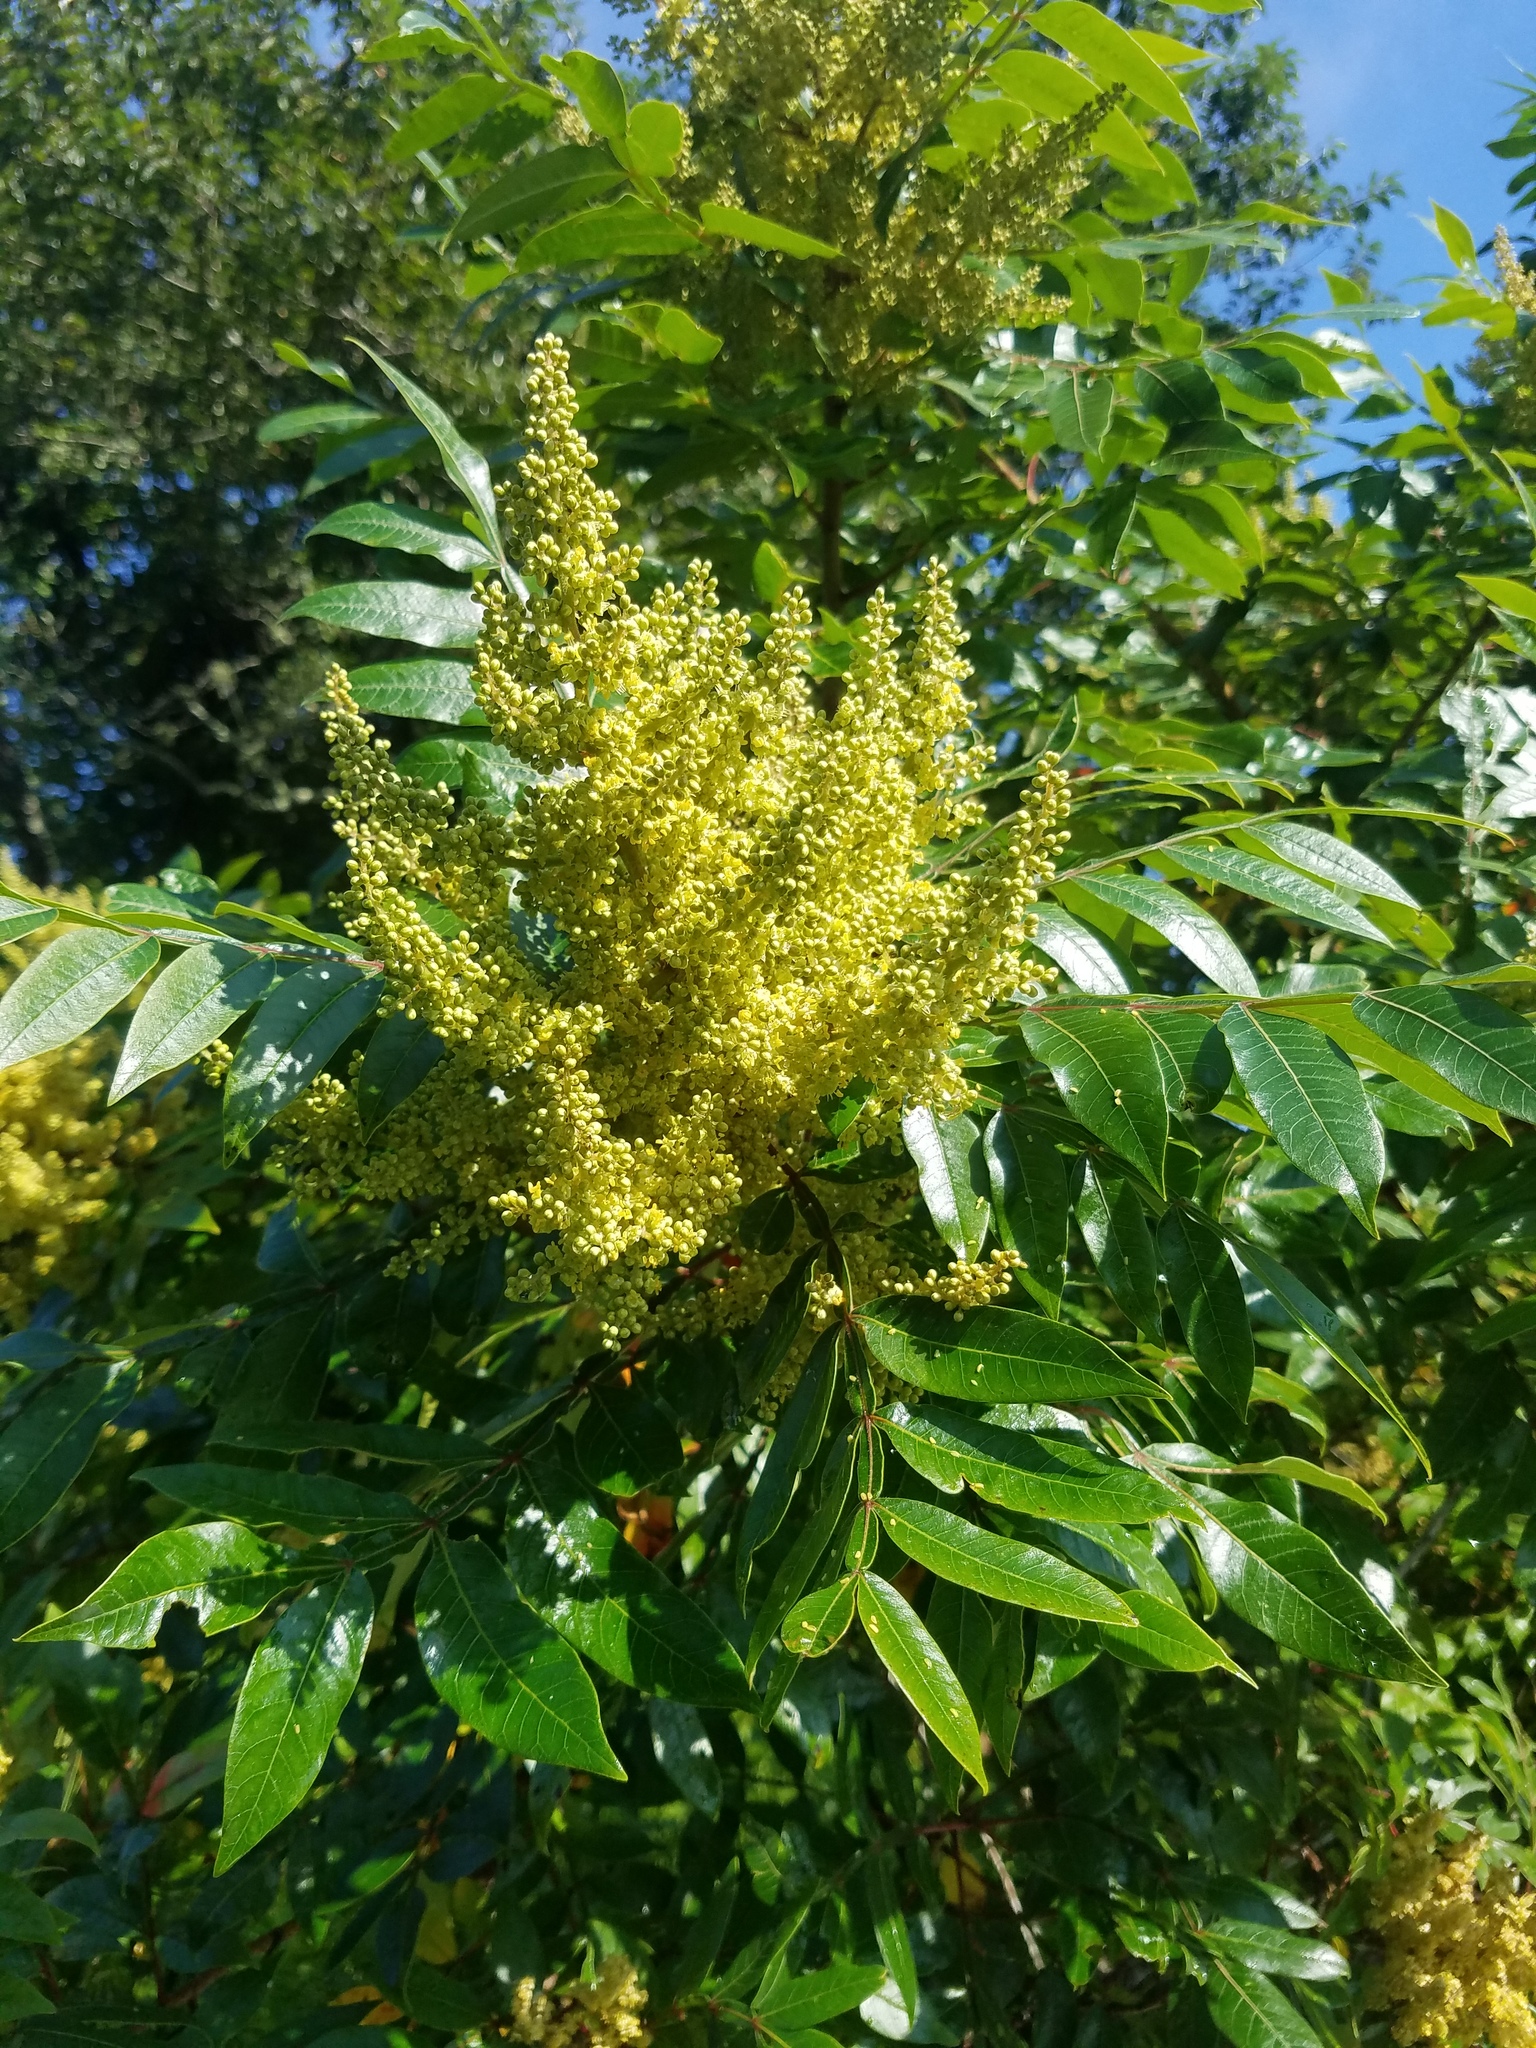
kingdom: Plantae
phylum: Tracheophyta
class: Magnoliopsida
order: Sapindales
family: Anacardiaceae
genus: Rhus
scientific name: Rhus copallina
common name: Shining sumac
